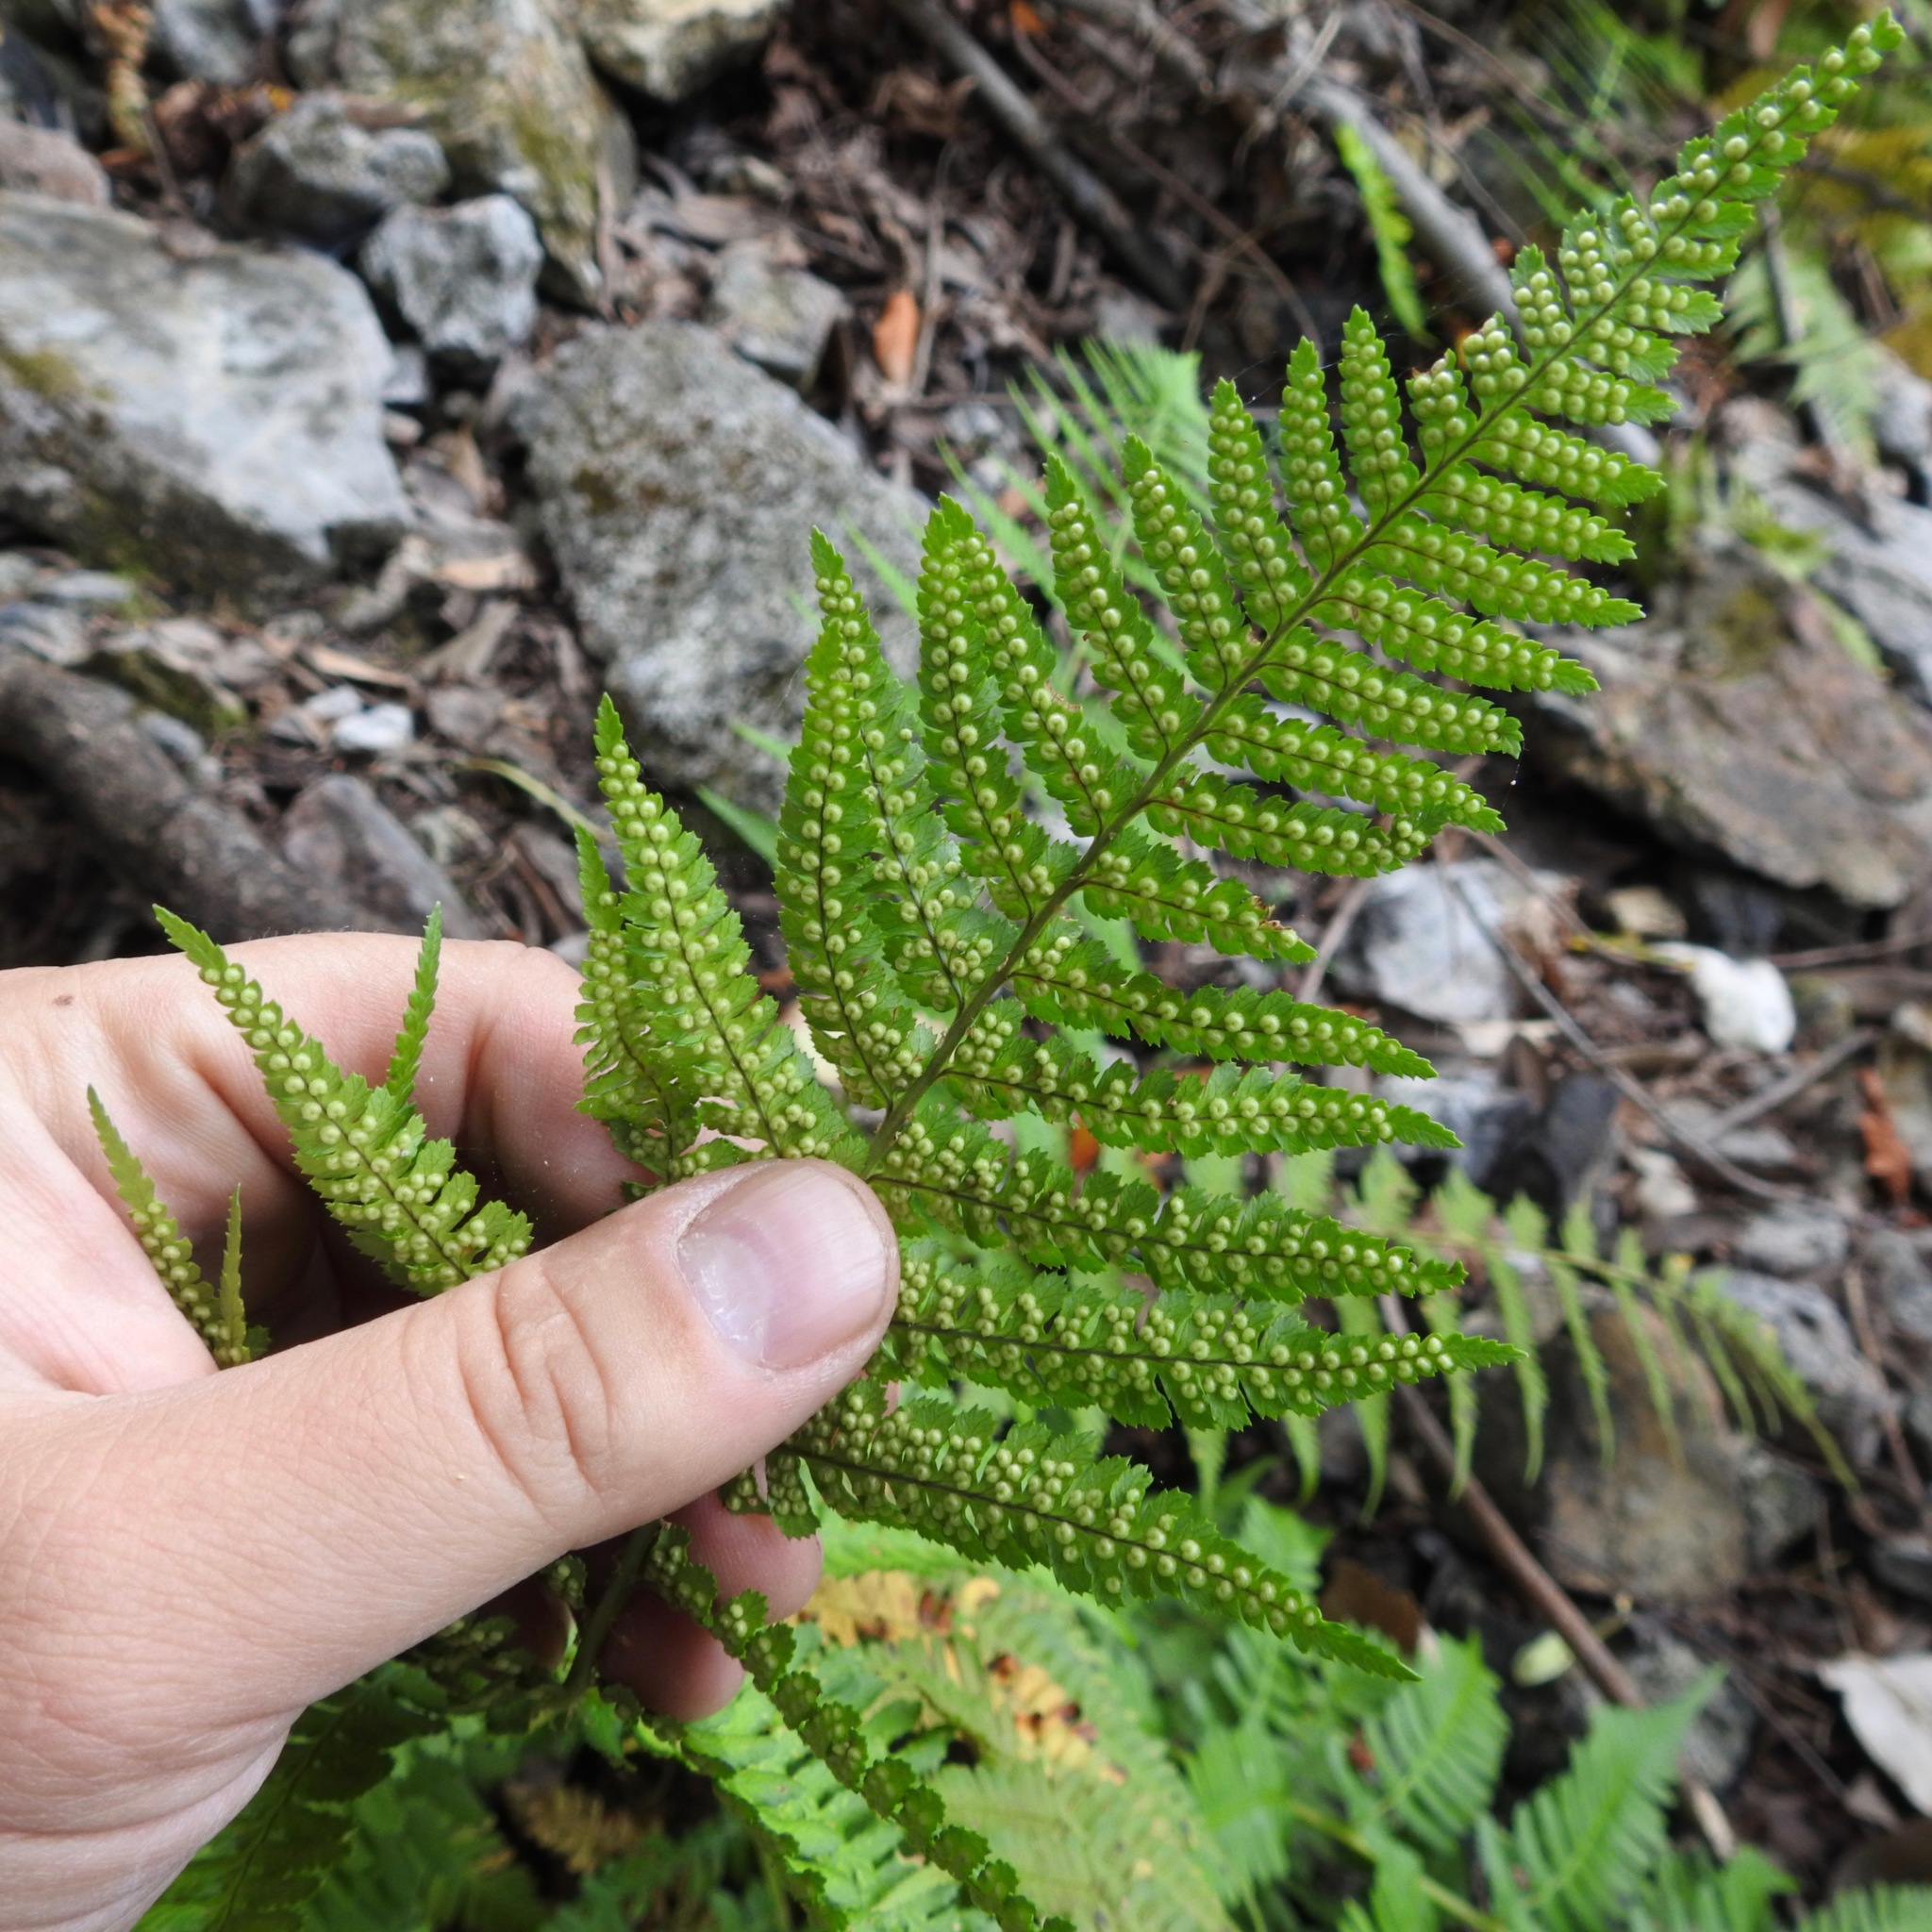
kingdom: Plantae
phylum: Tracheophyta
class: Polypodiopsida
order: Polypodiales
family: Dryopteridaceae
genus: Dryopteris
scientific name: Dryopteris arguta
